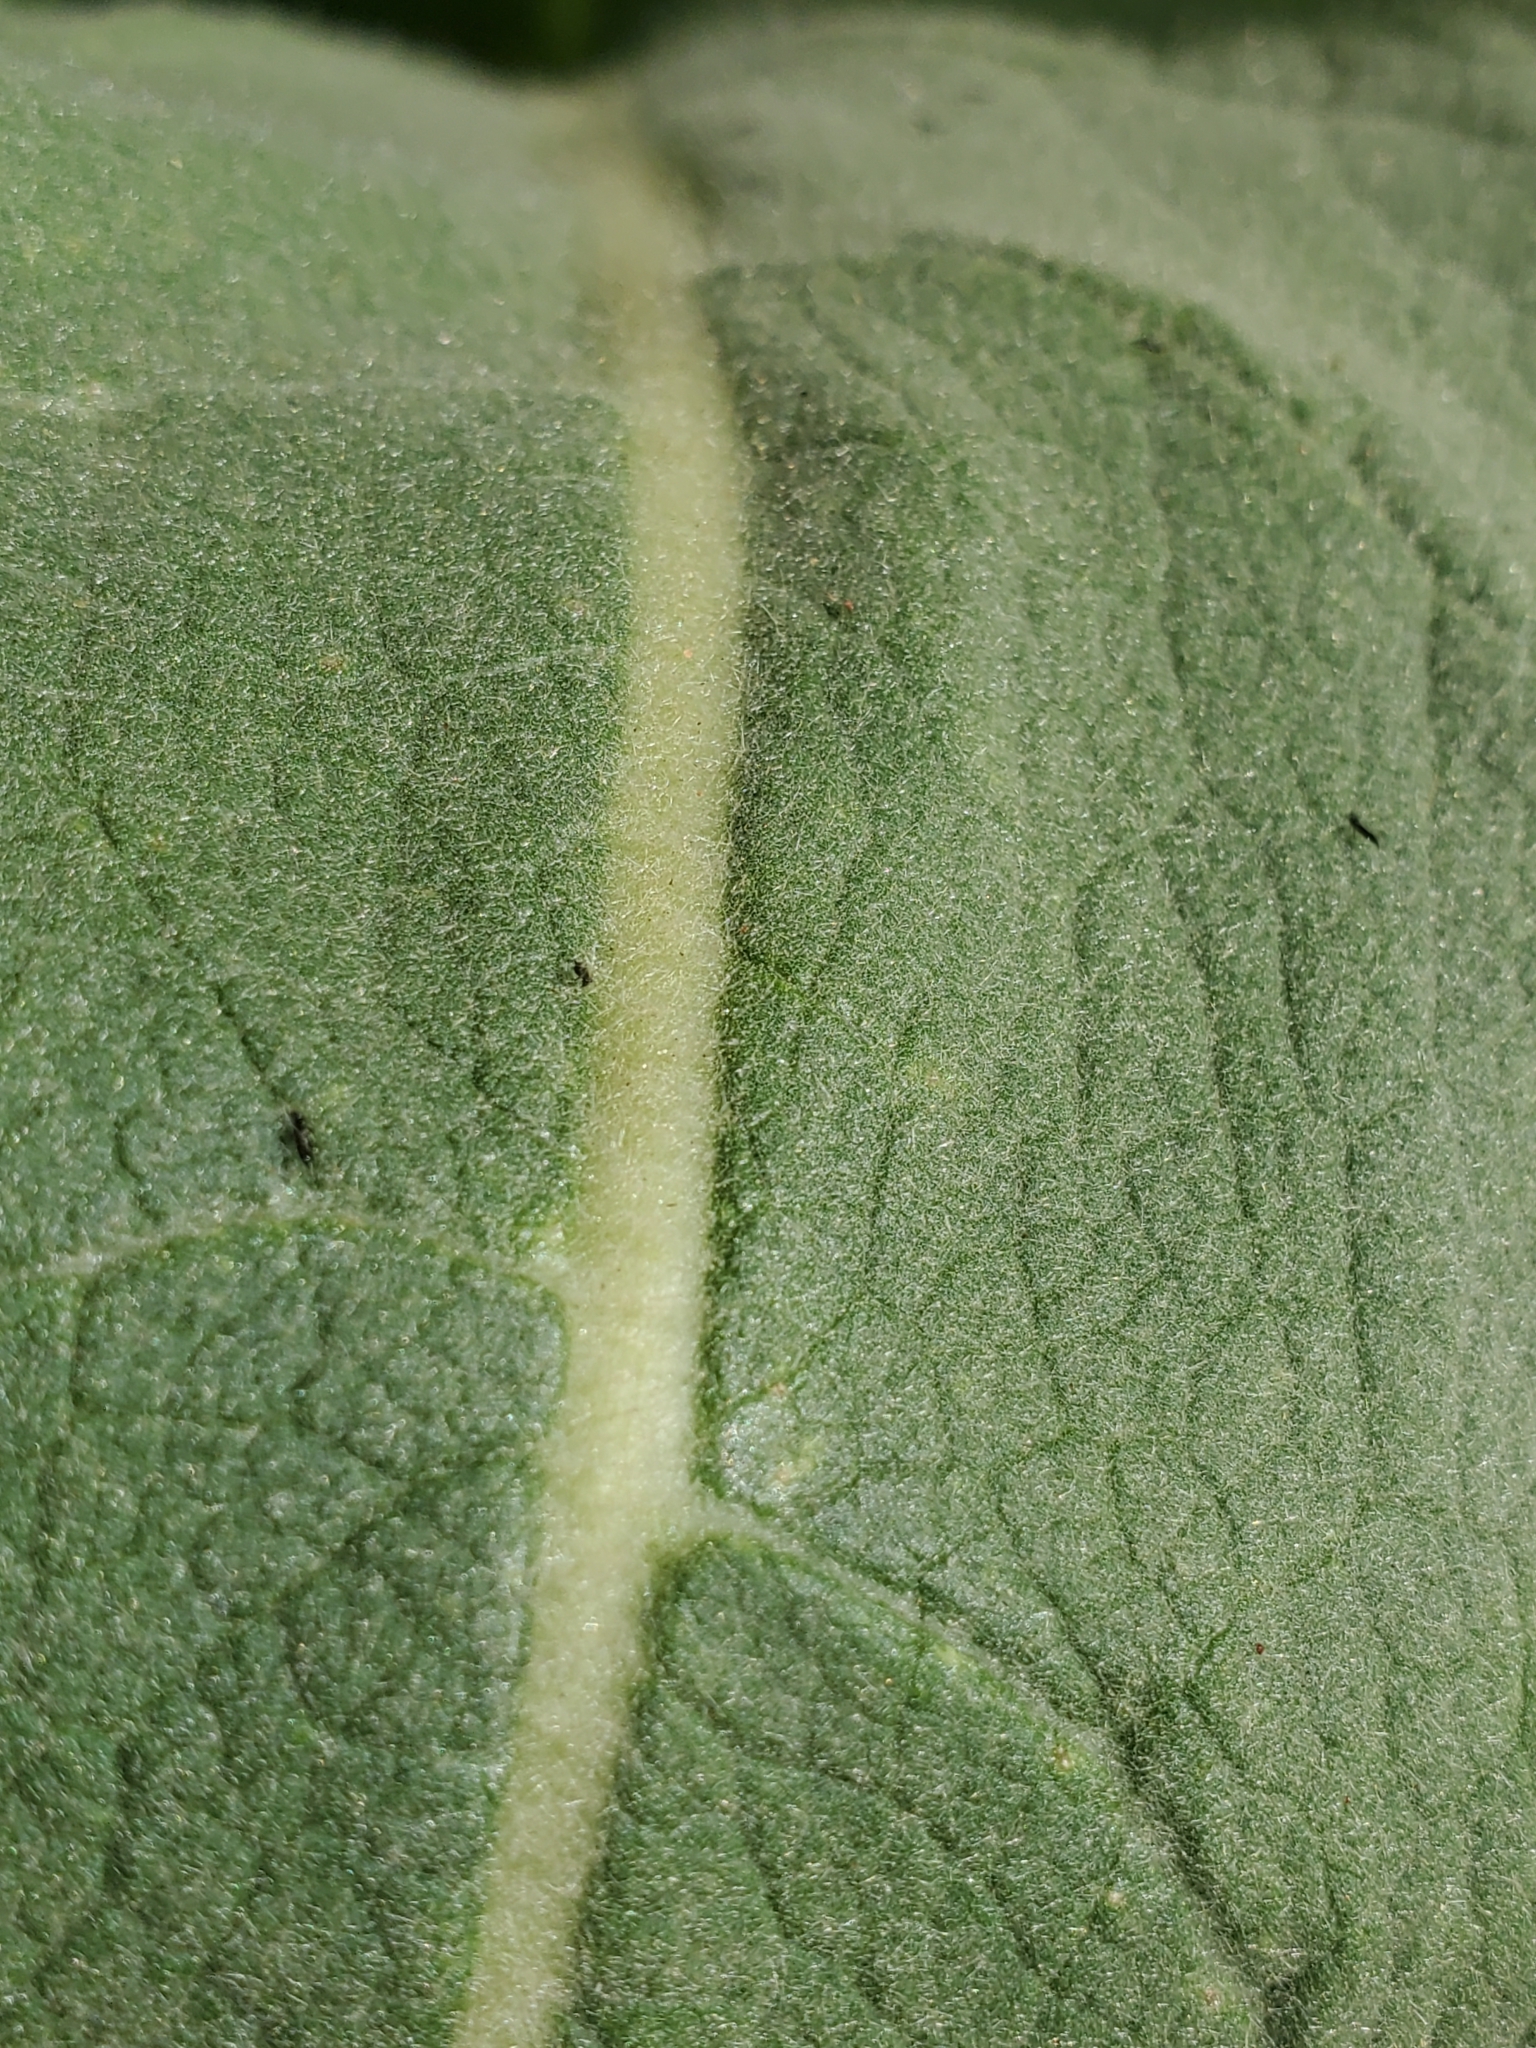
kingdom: Plantae
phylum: Tracheophyta
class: Magnoliopsida
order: Lamiales
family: Scrophulariaceae
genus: Verbascum
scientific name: Verbascum thapsus
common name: Common mullein
